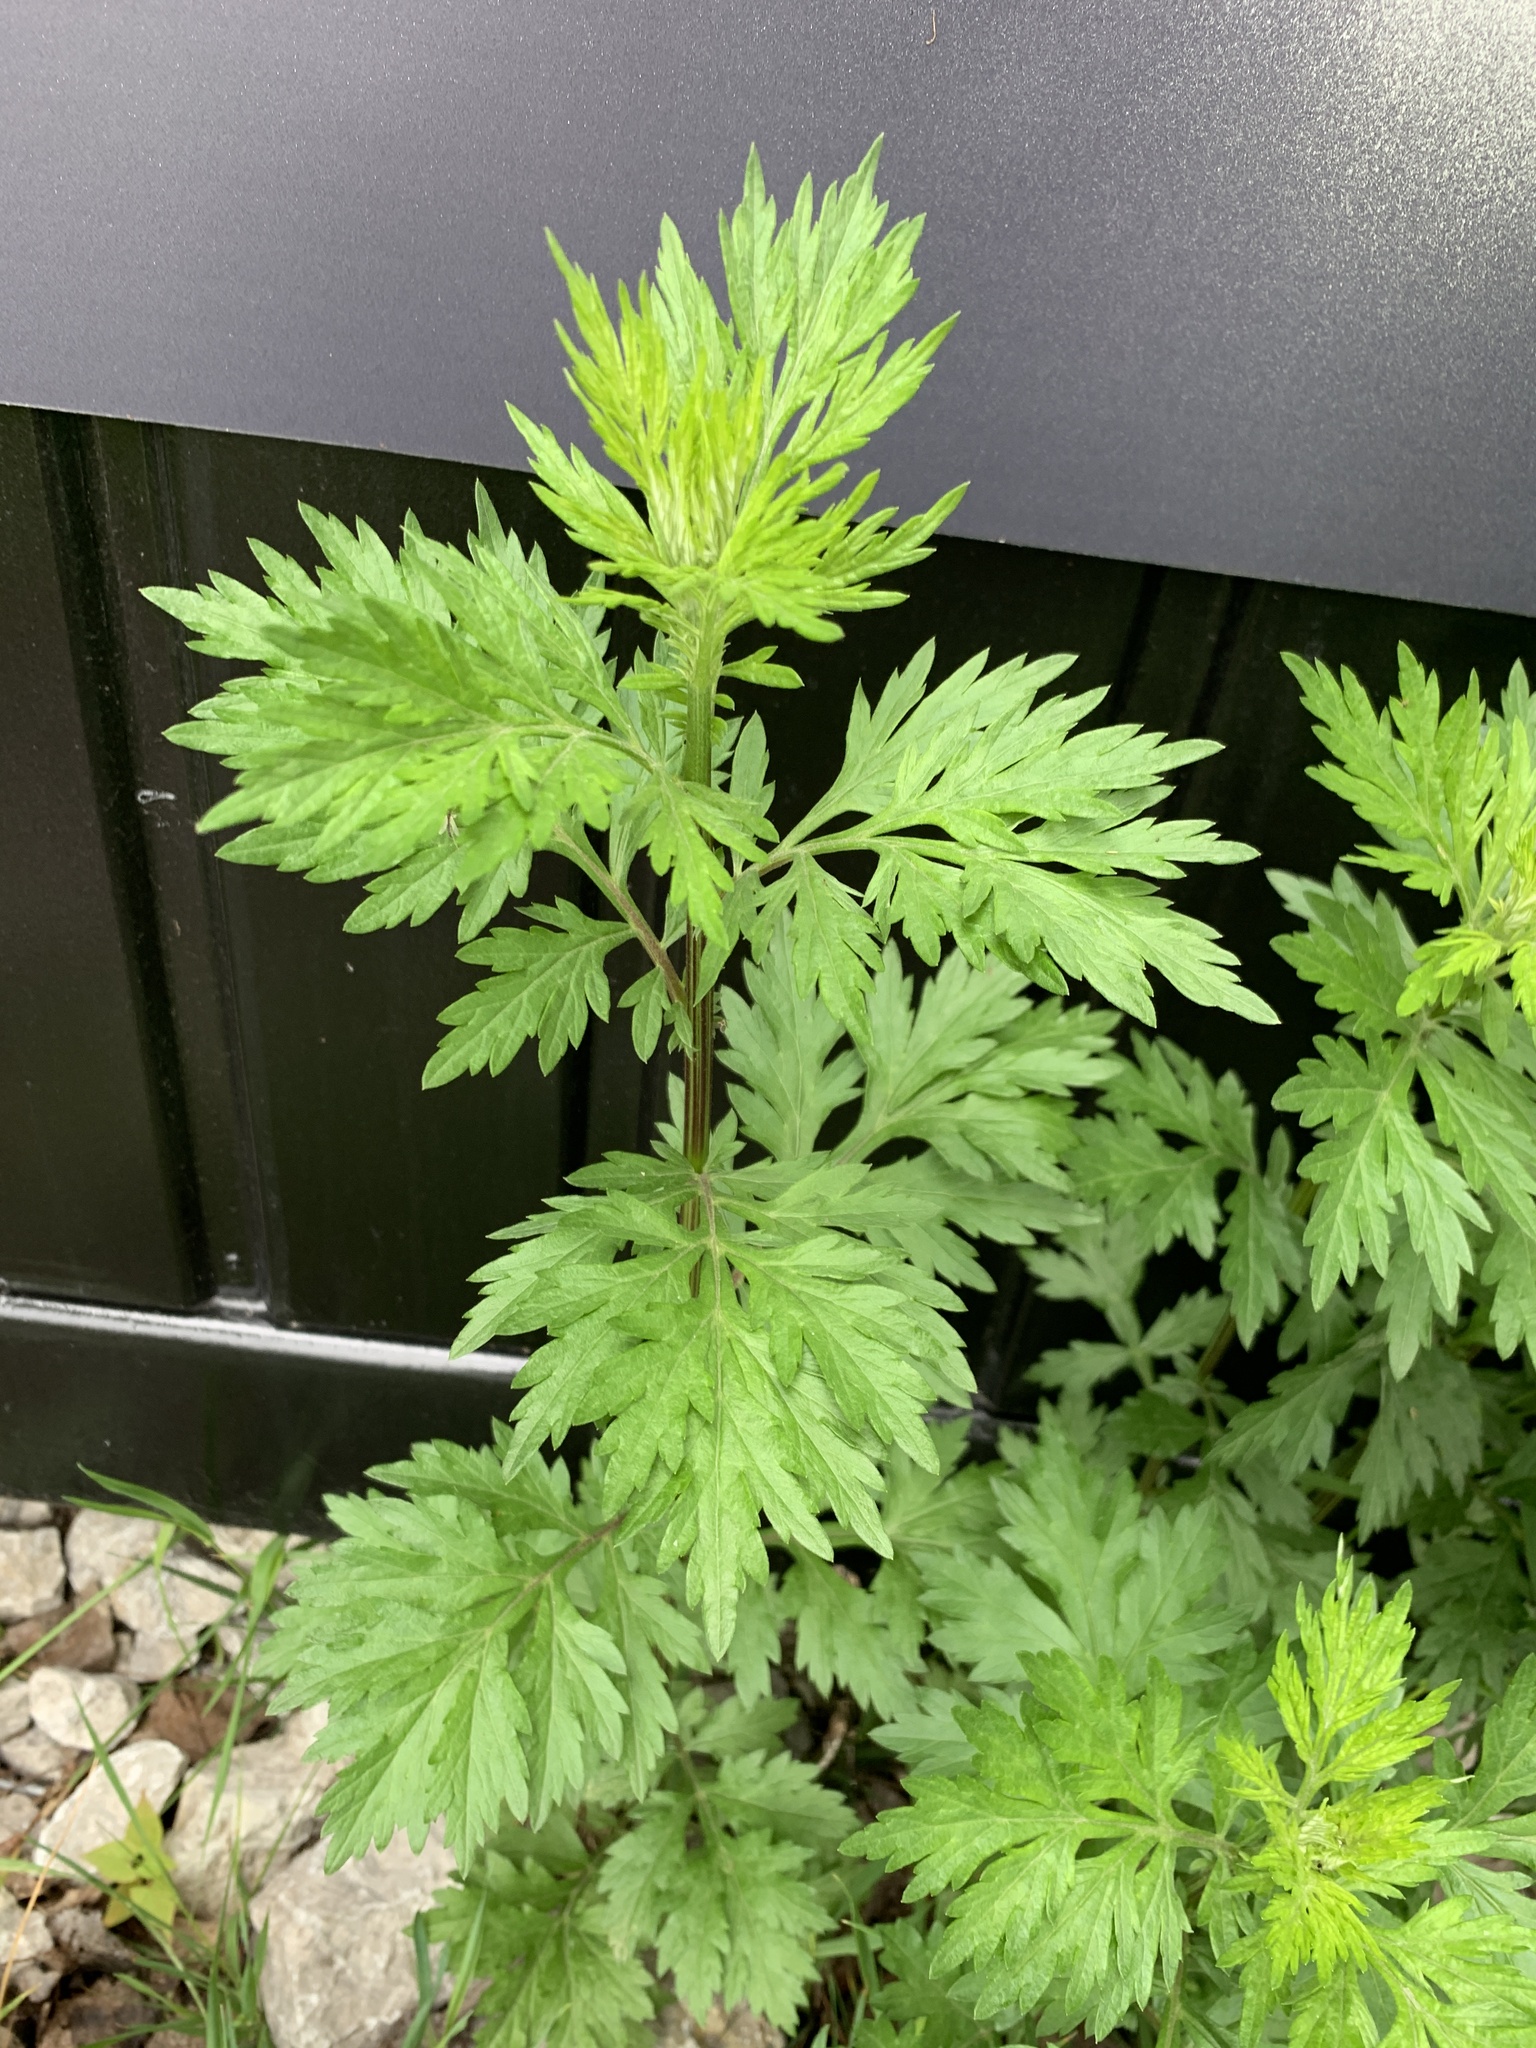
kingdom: Plantae
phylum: Tracheophyta
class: Magnoliopsida
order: Asterales
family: Asteraceae
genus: Artemisia
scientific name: Artemisia vulgaris
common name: Mugwort
